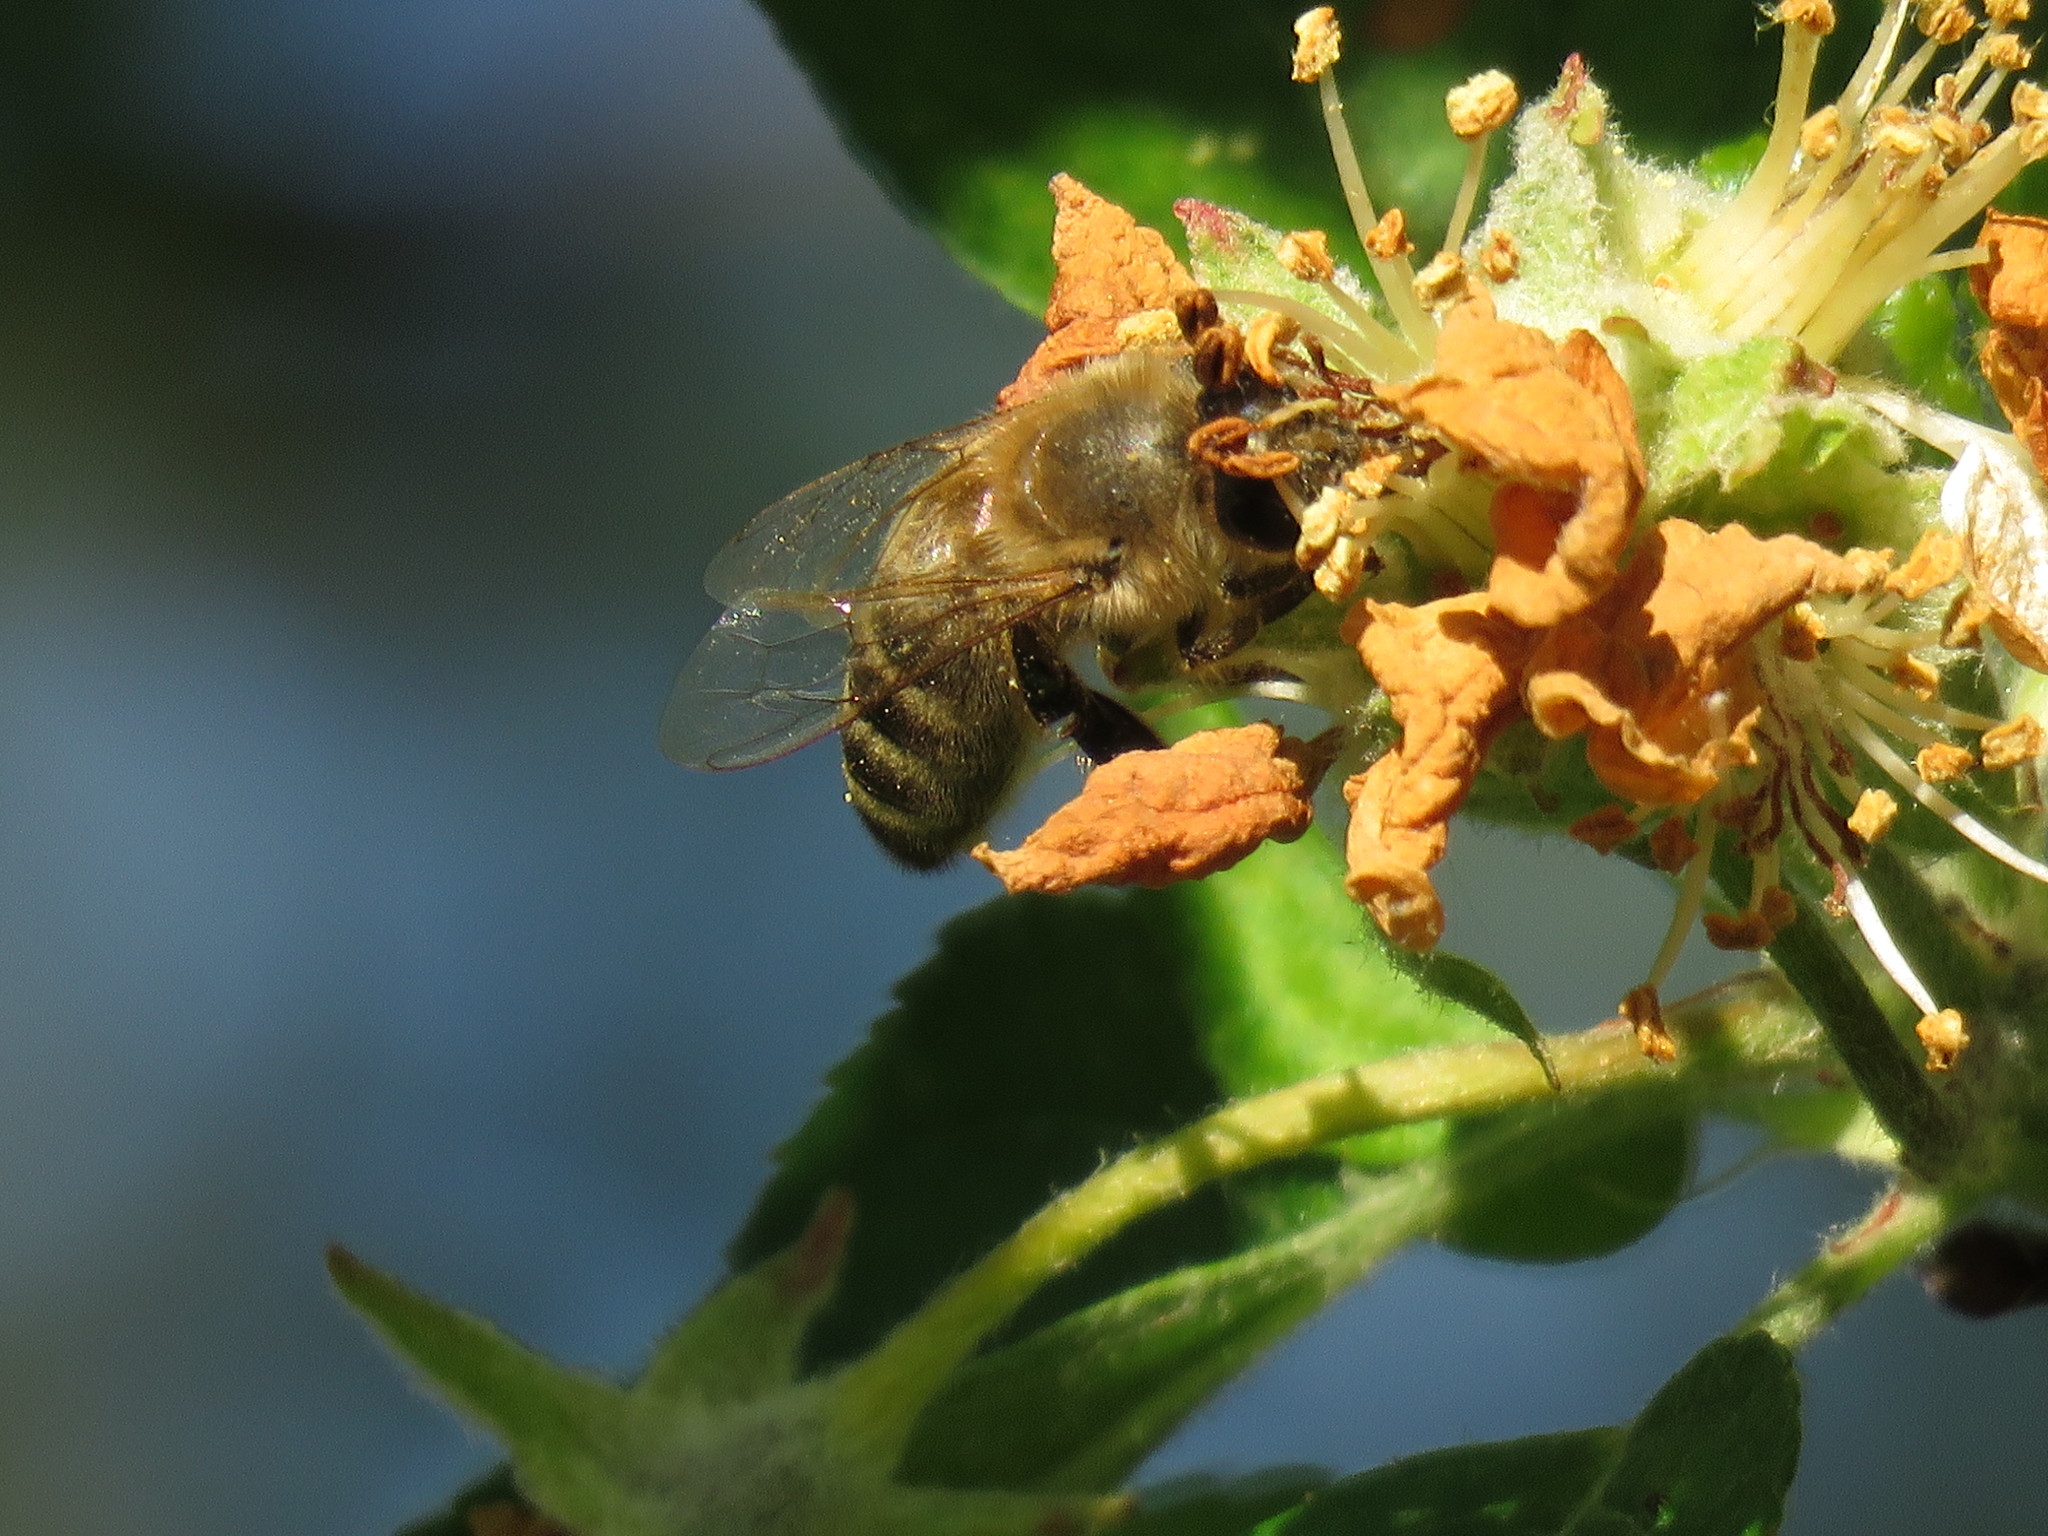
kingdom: Animalia
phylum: Arthropoda
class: Insecta
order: Hymenoptera
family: Apidae
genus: Apis
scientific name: Apis mellifera
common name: Honey bee
